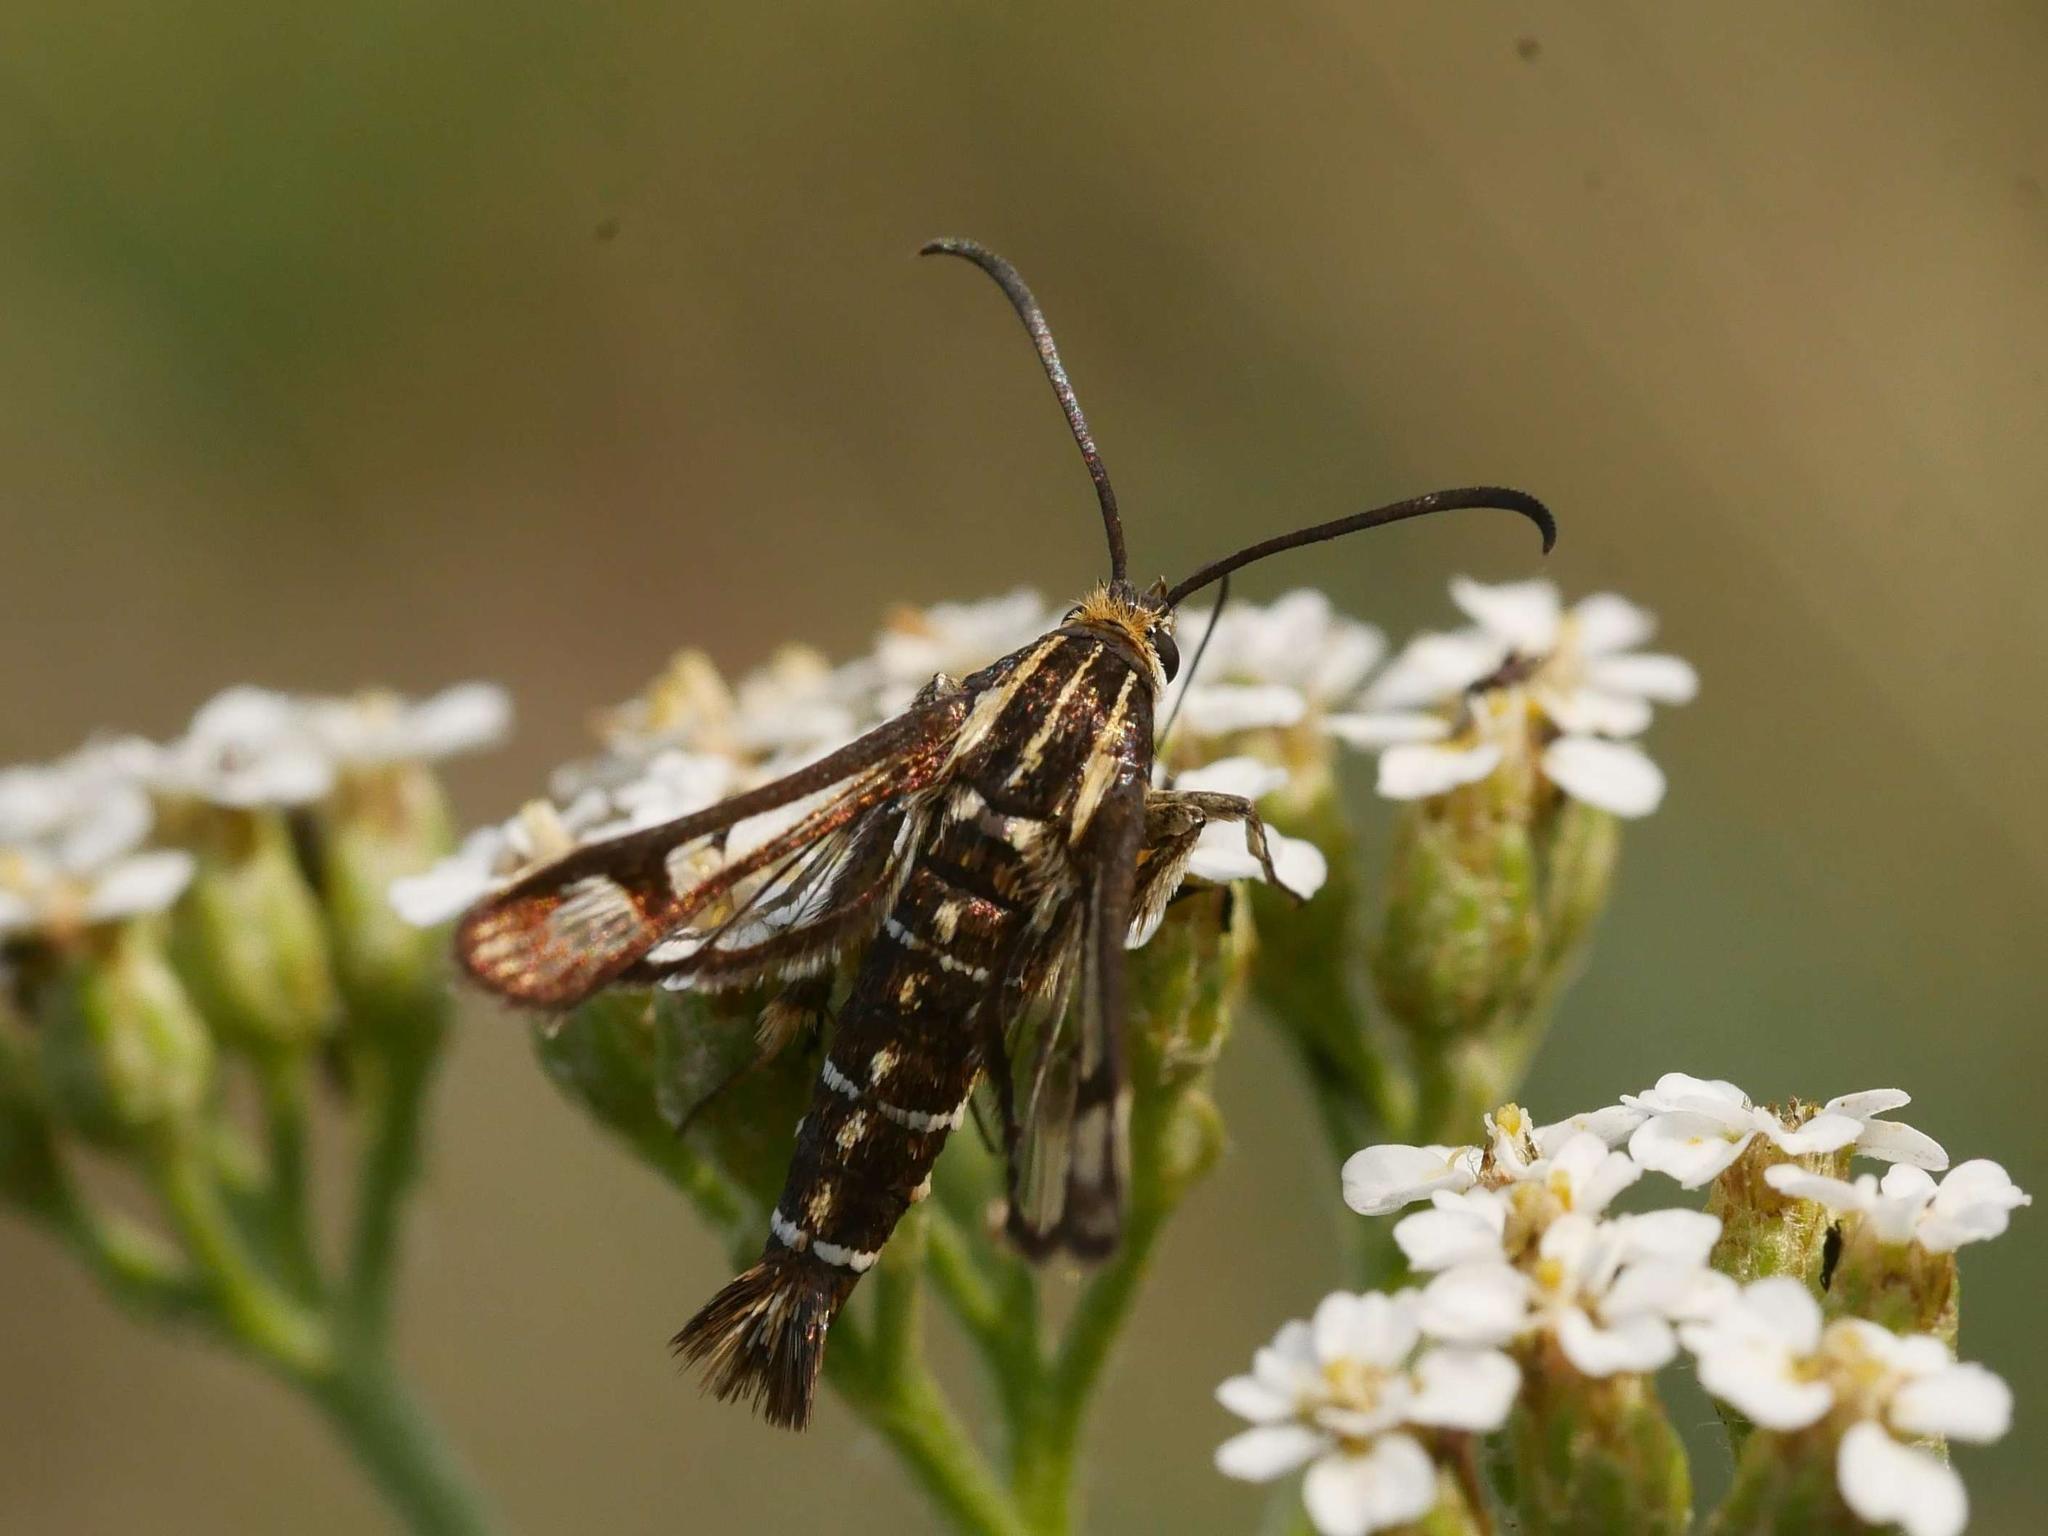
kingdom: Animalia
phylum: Arthropoda
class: Insecta
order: Lepidoptera
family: Sesiidae
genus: Pyropteron
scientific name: Pyropteron triannuliformis
